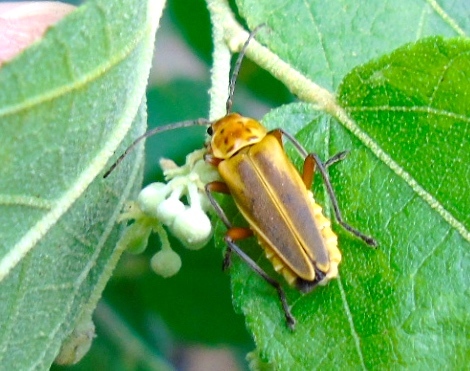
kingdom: Animalia
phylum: Arthropoda
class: Insecta
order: Coleoptera
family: Cantharidae
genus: Chauliognathus
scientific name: Chauliognathus
